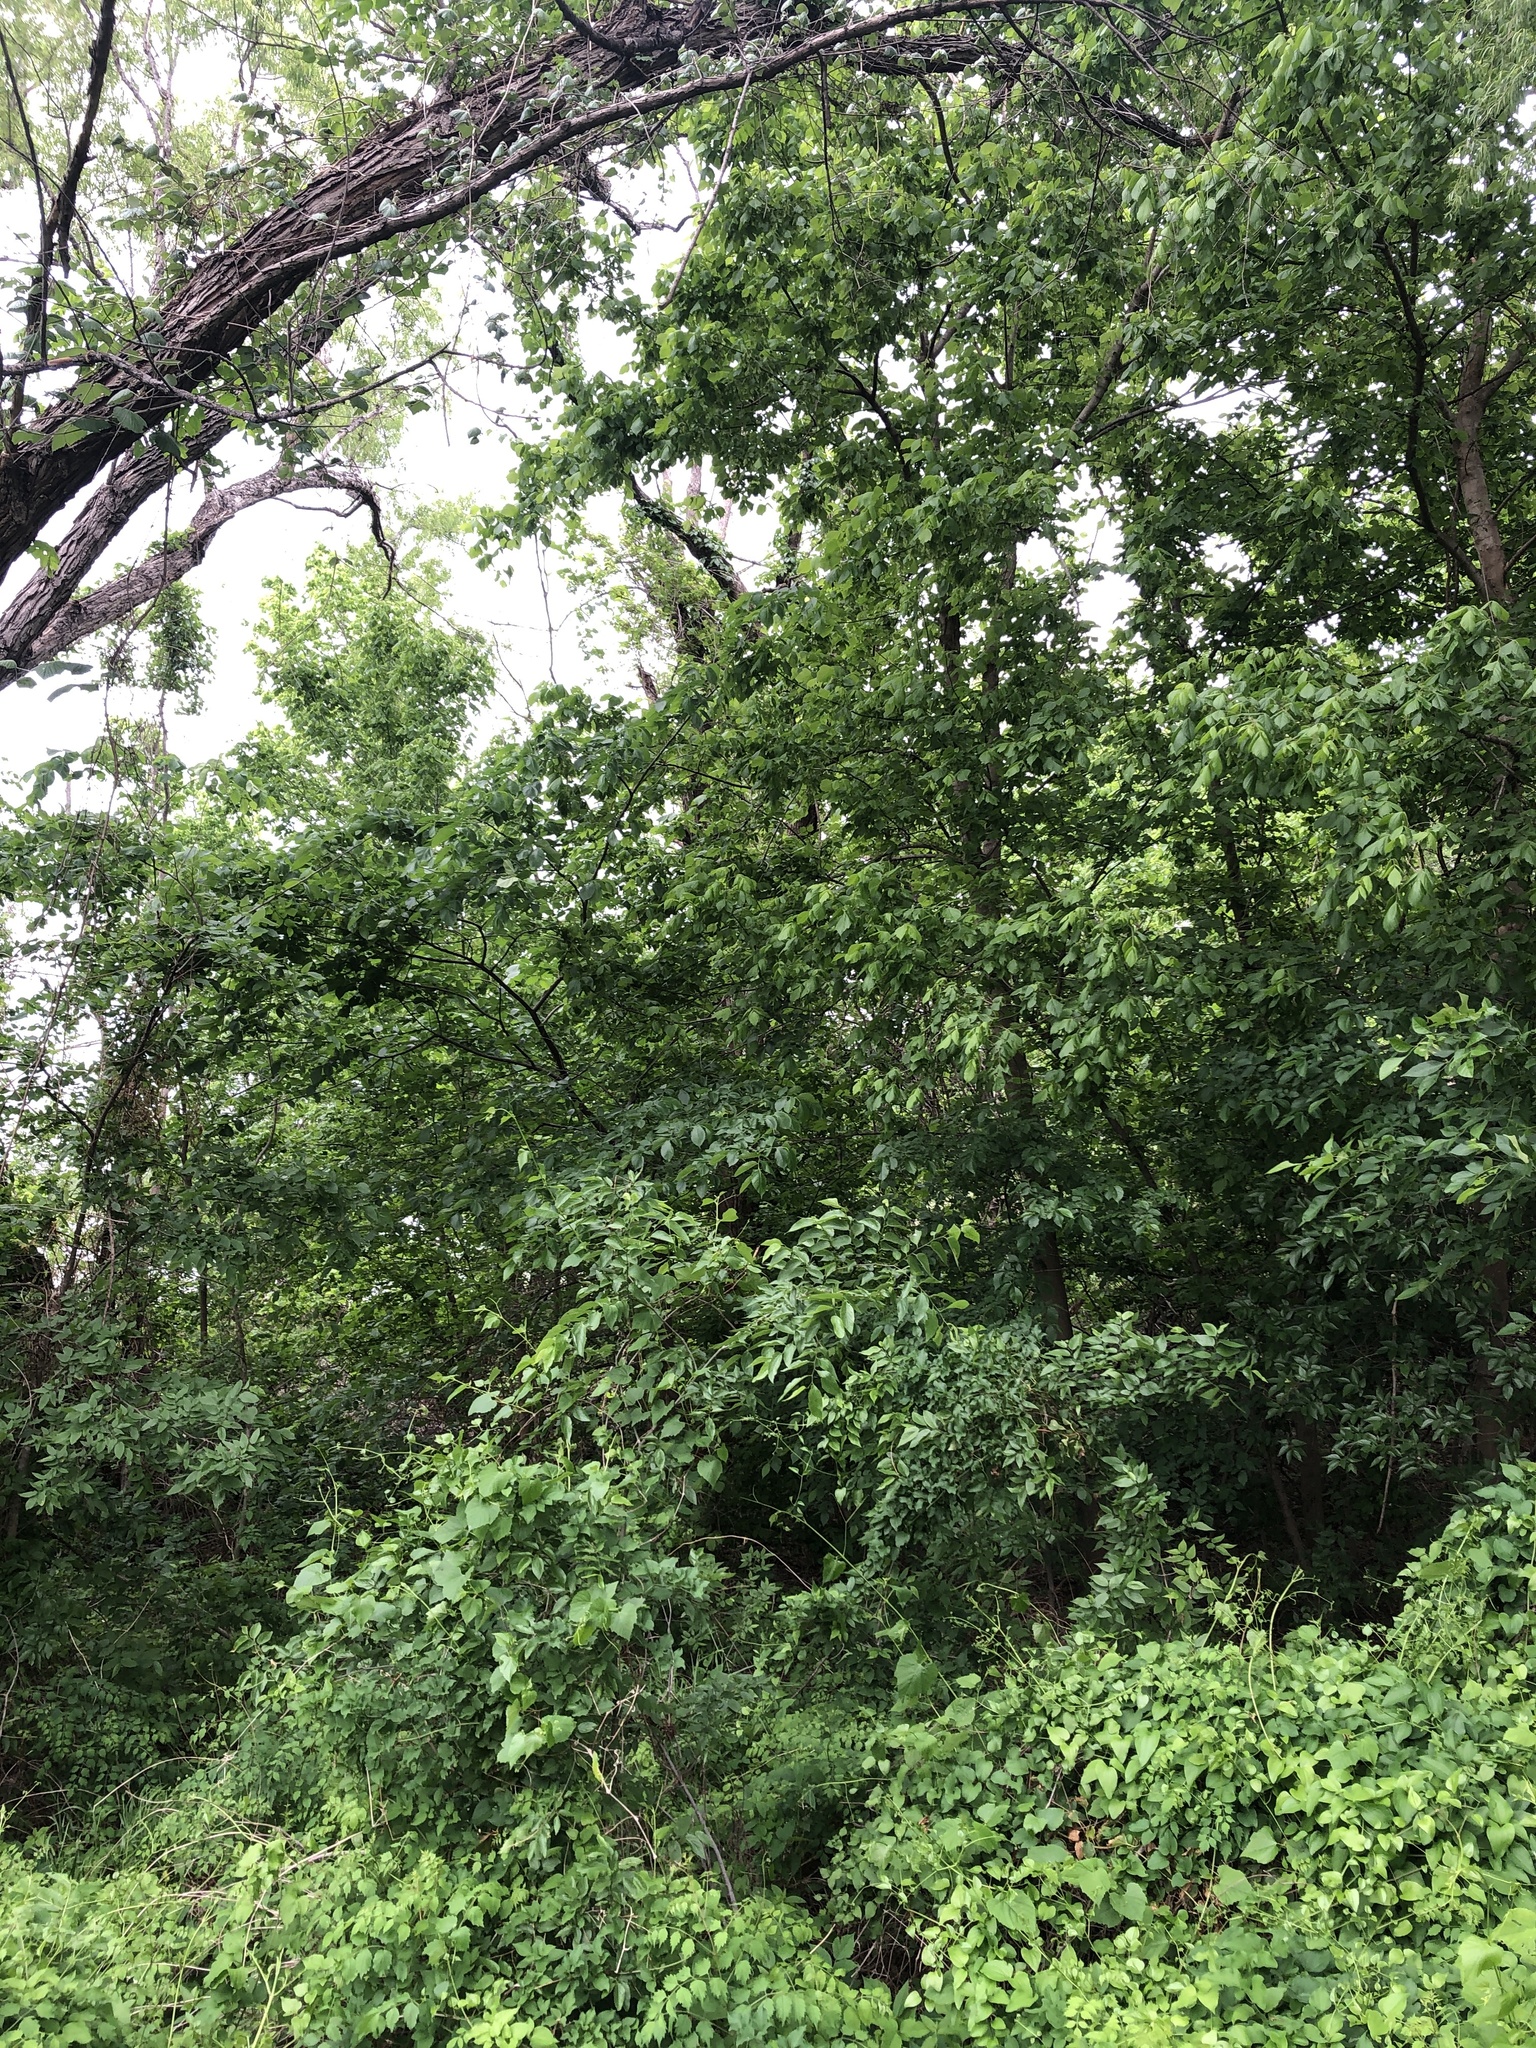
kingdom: Animalia
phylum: Chordata
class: Aves
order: Columbiformes
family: Columbidae
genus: Zenaida
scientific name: Zenaida macroura
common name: Mourning dove
